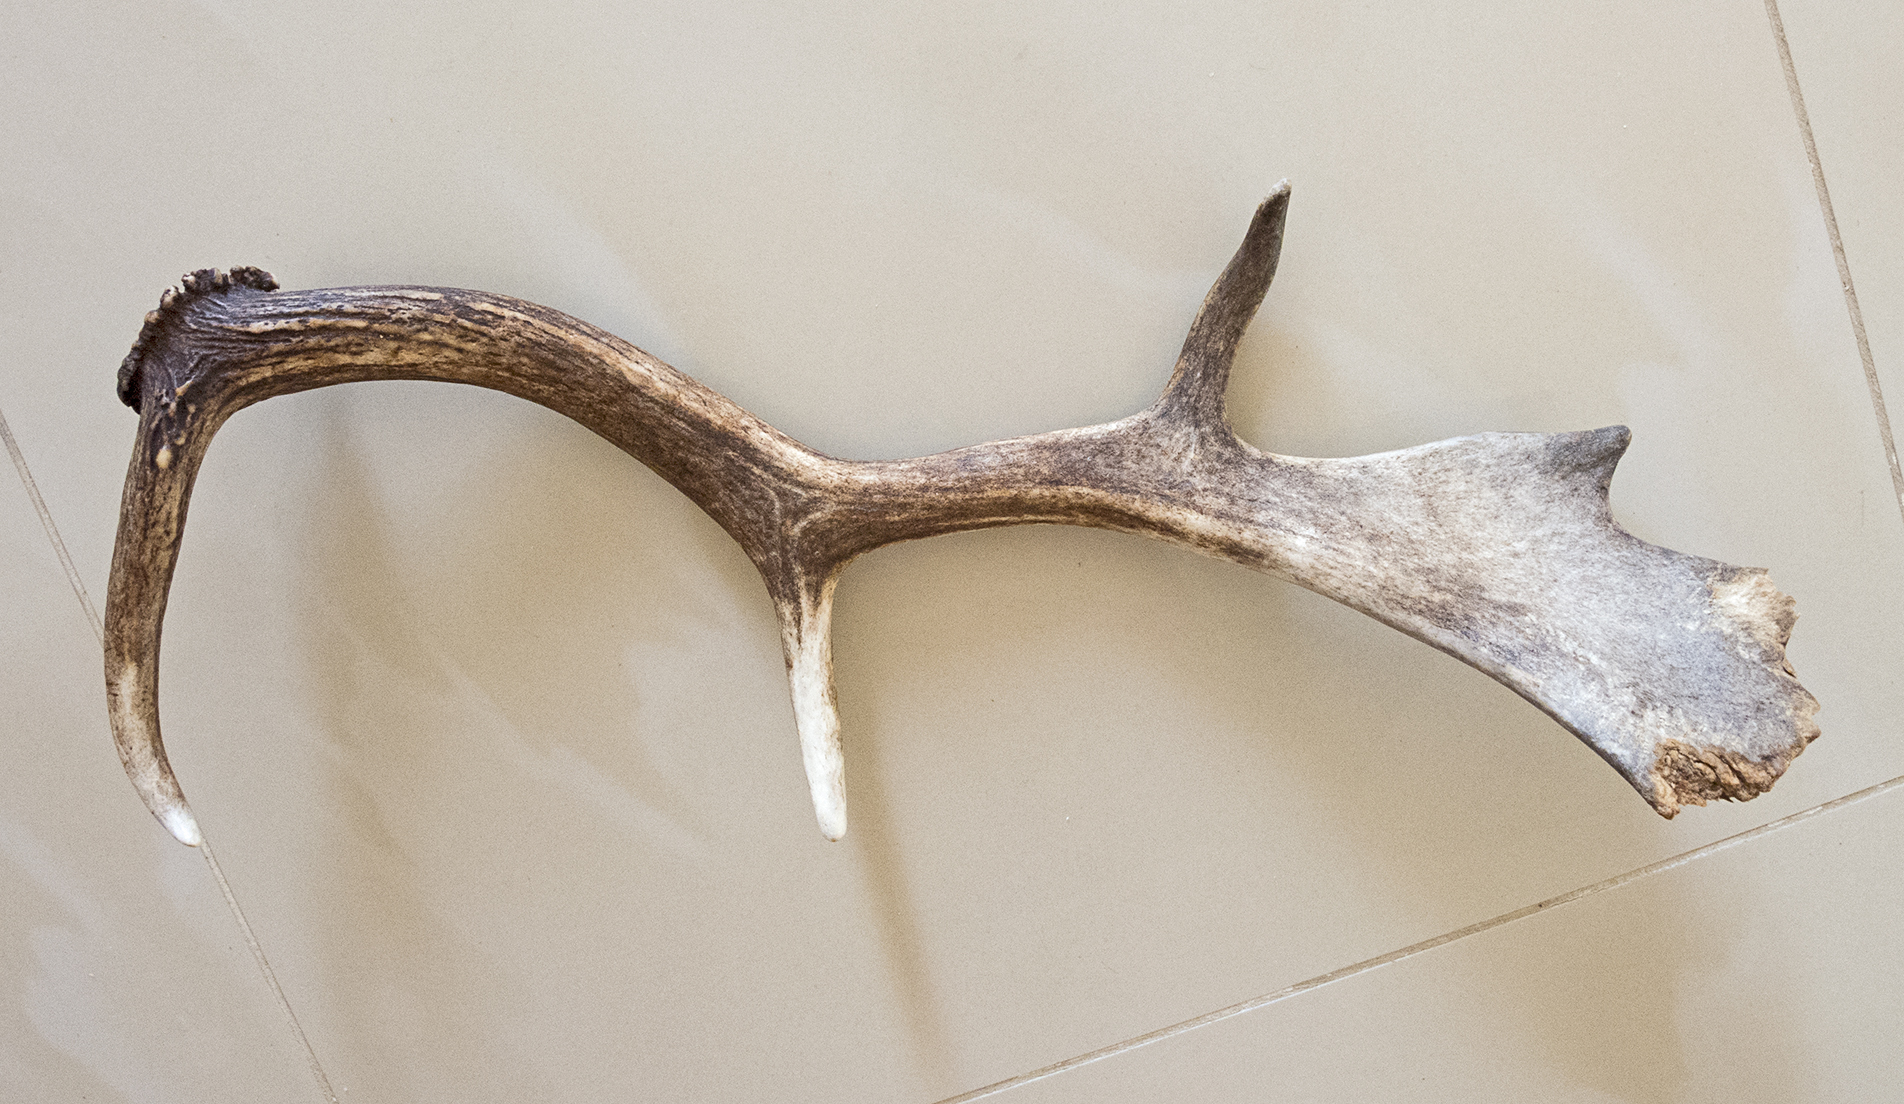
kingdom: Animalia
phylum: Chordata
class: Mammalia
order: Artiodactyla
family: Cervidae
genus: Dama
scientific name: Dama dama
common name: Fallow deer
